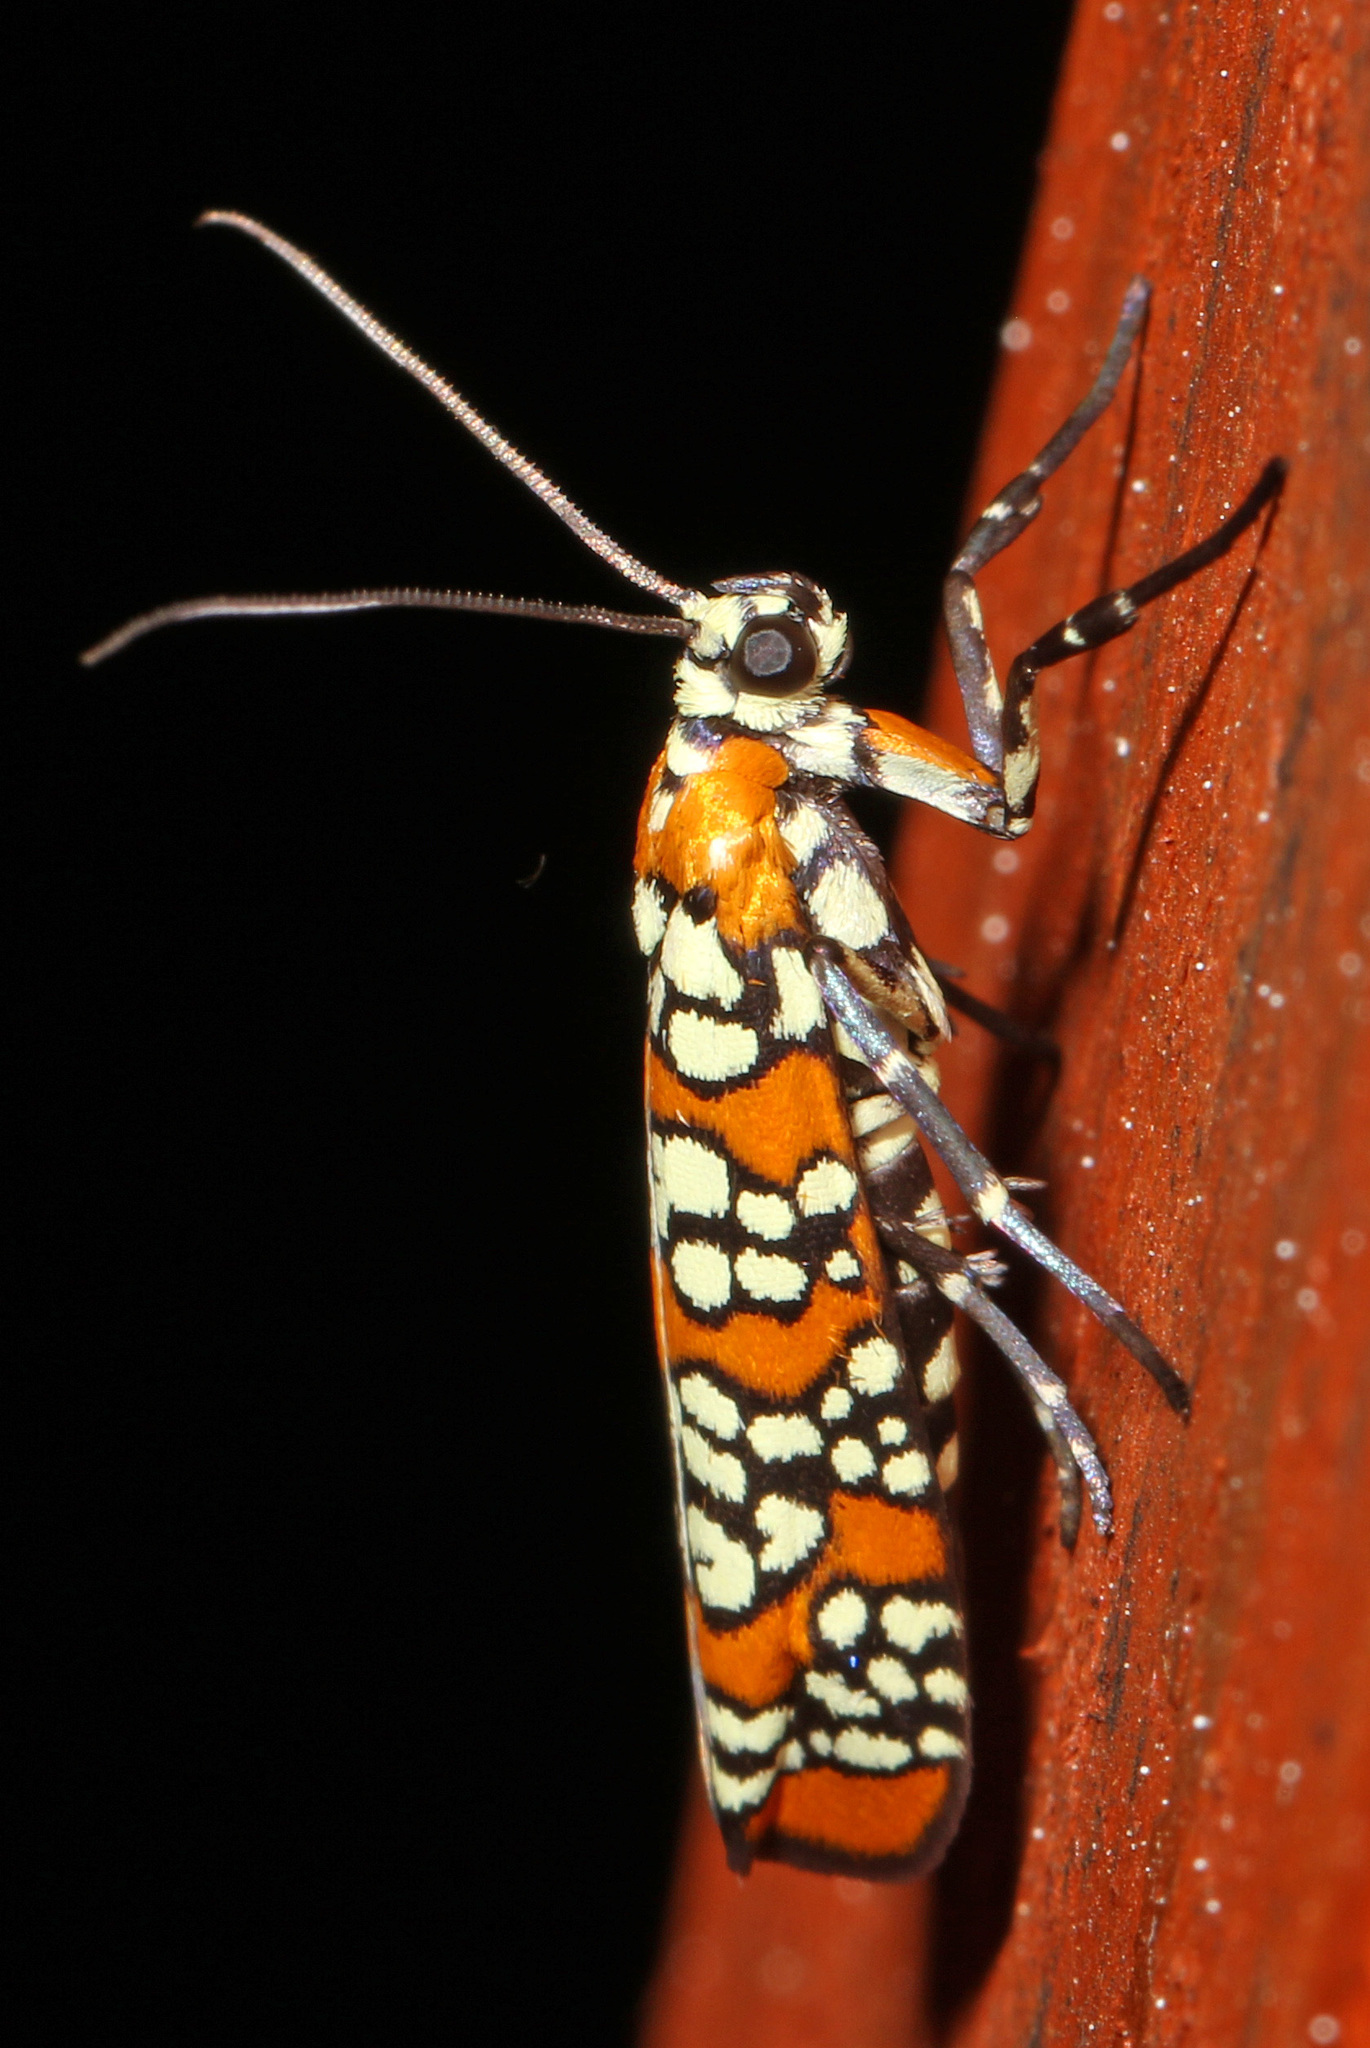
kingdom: Animalia
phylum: Arthropoda
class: Insecta
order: Lepidoptera
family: Attevidae
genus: Atteva
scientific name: Atteva punctella
